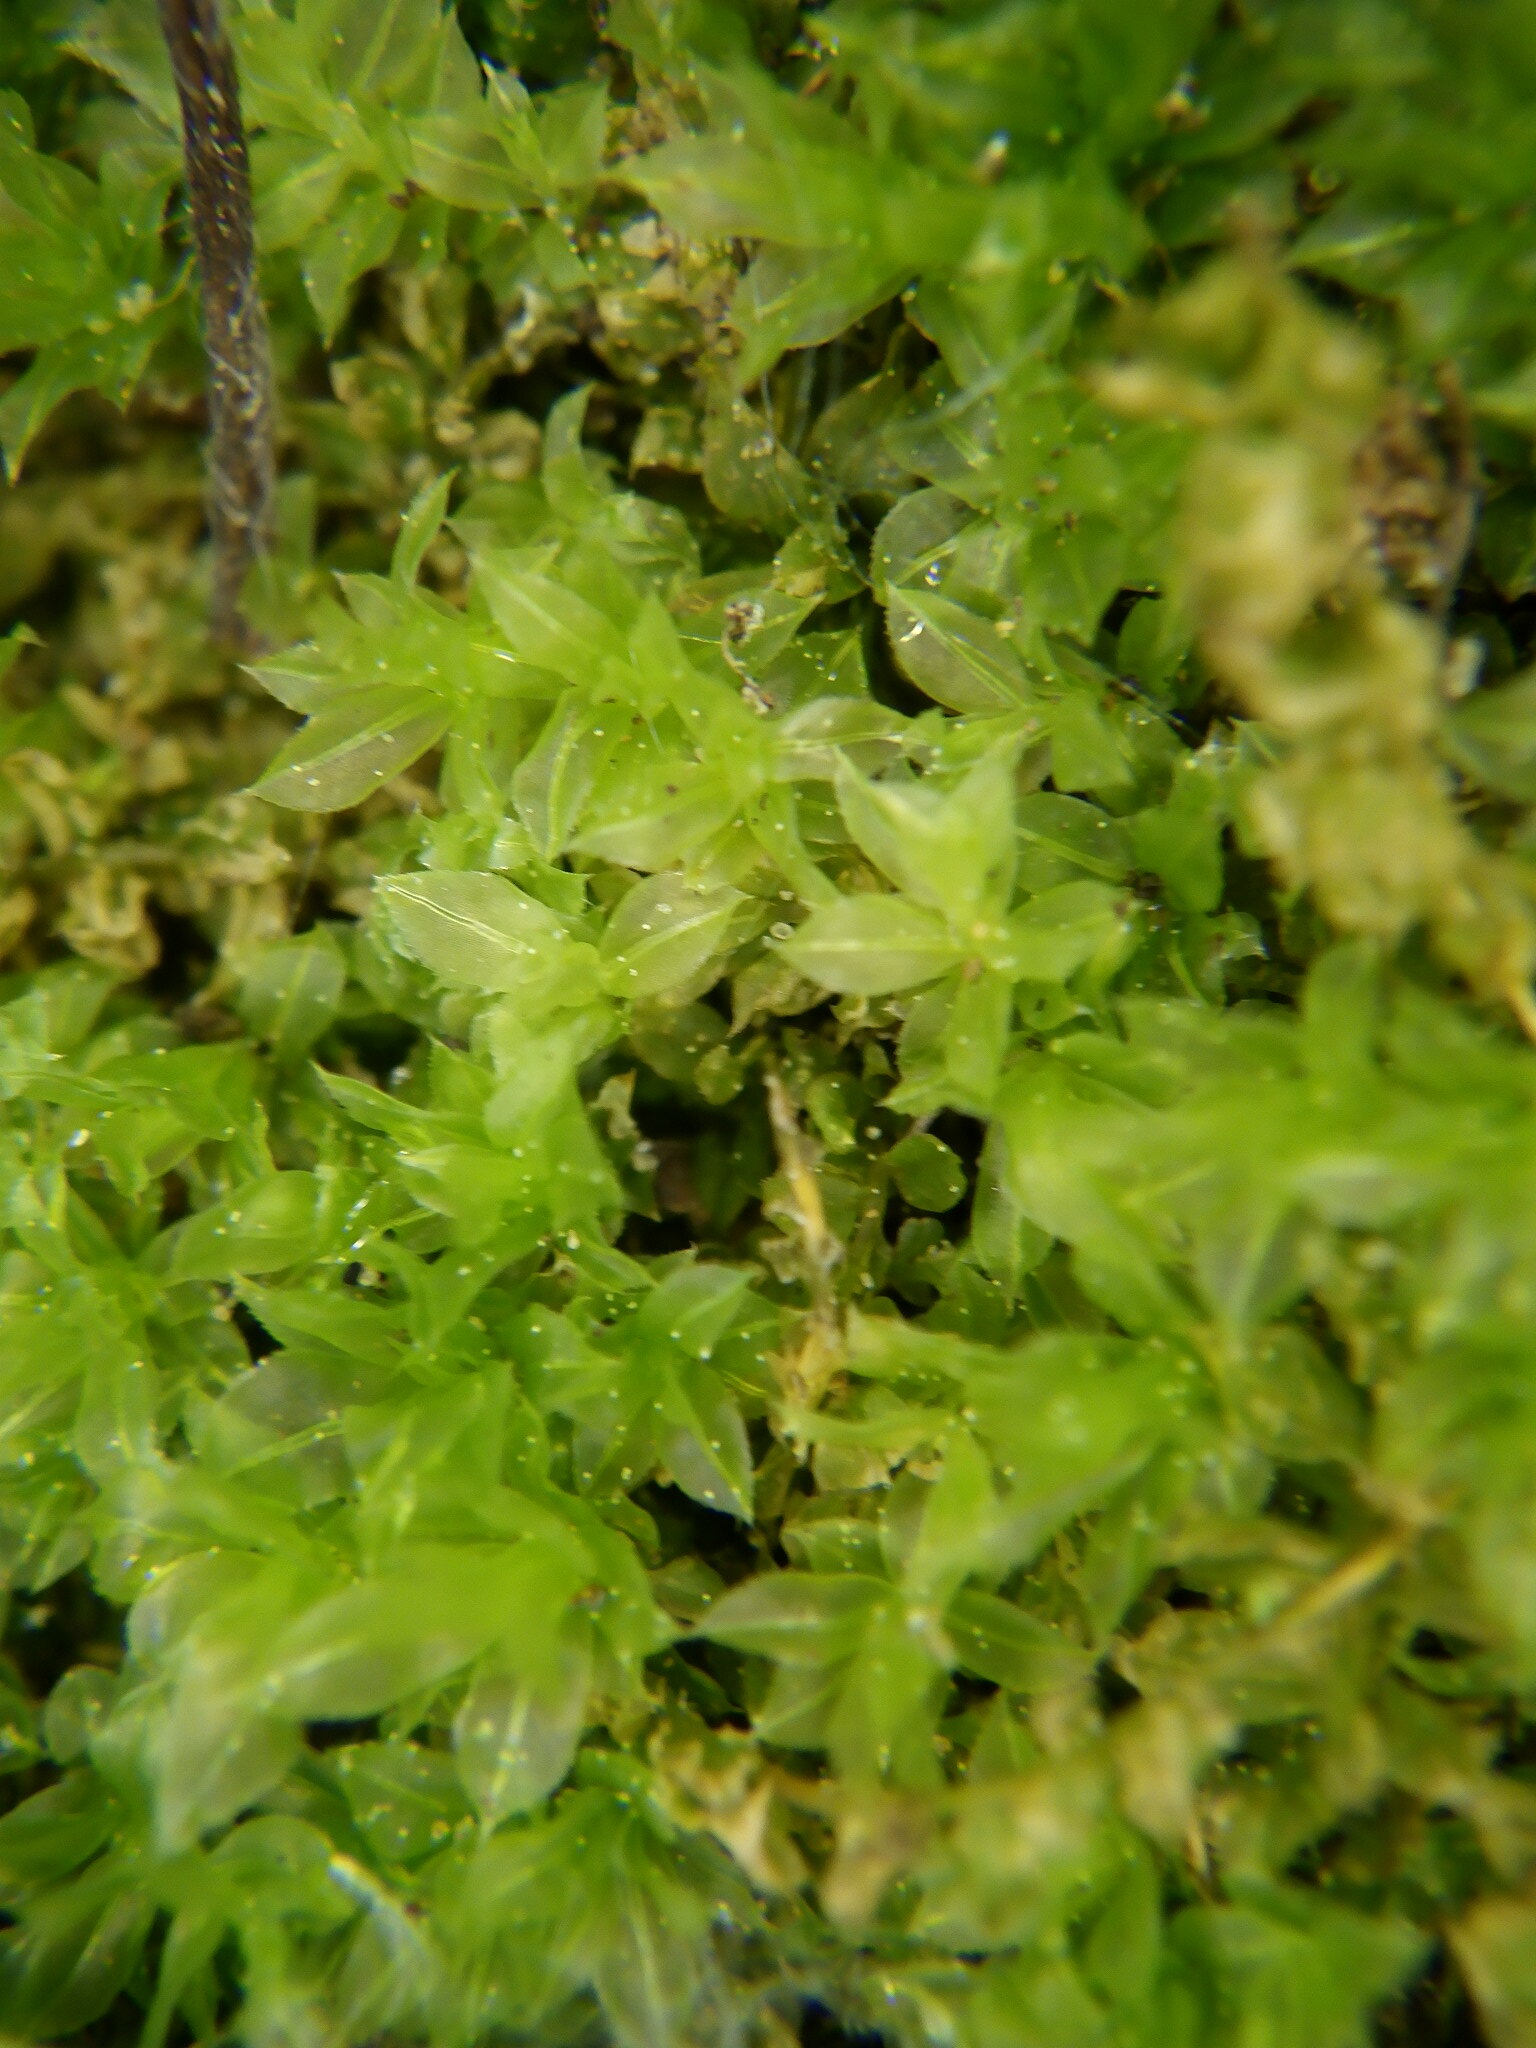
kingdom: Plantae
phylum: Bryophyta
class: Bryopsida
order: Bryales
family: Mniaceae
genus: Plagiomnium
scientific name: Plagiomnium cuspidatum
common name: Woodsy leafy moss
